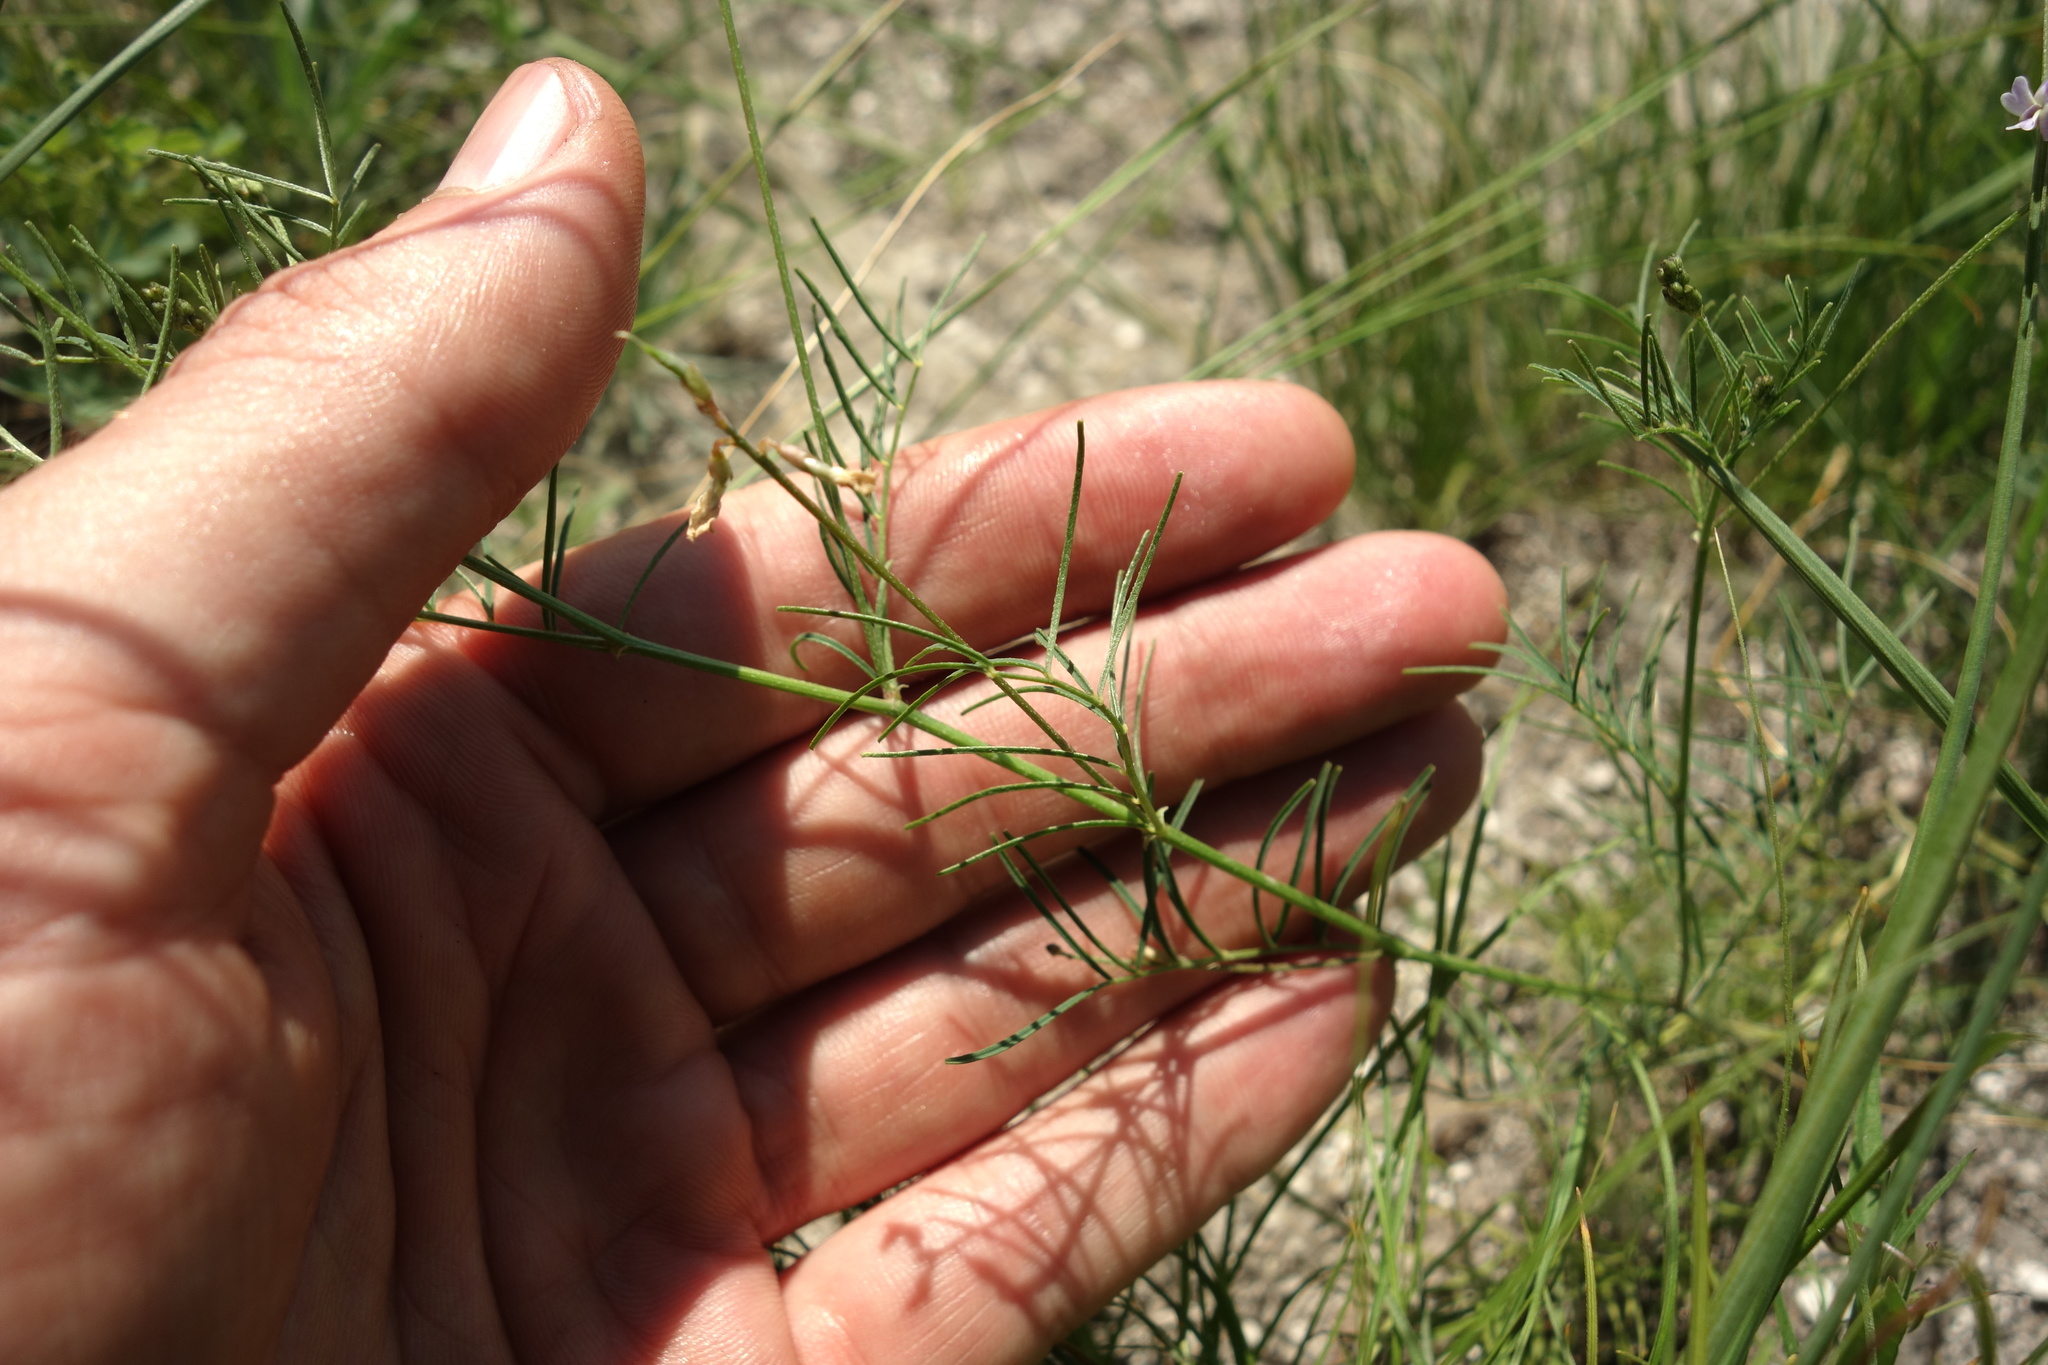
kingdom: Plantae
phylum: Tracheophyta
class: Magnoliopsida
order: Fabales
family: Fabaceae
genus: Astragalus
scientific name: Astragalus austriacus
